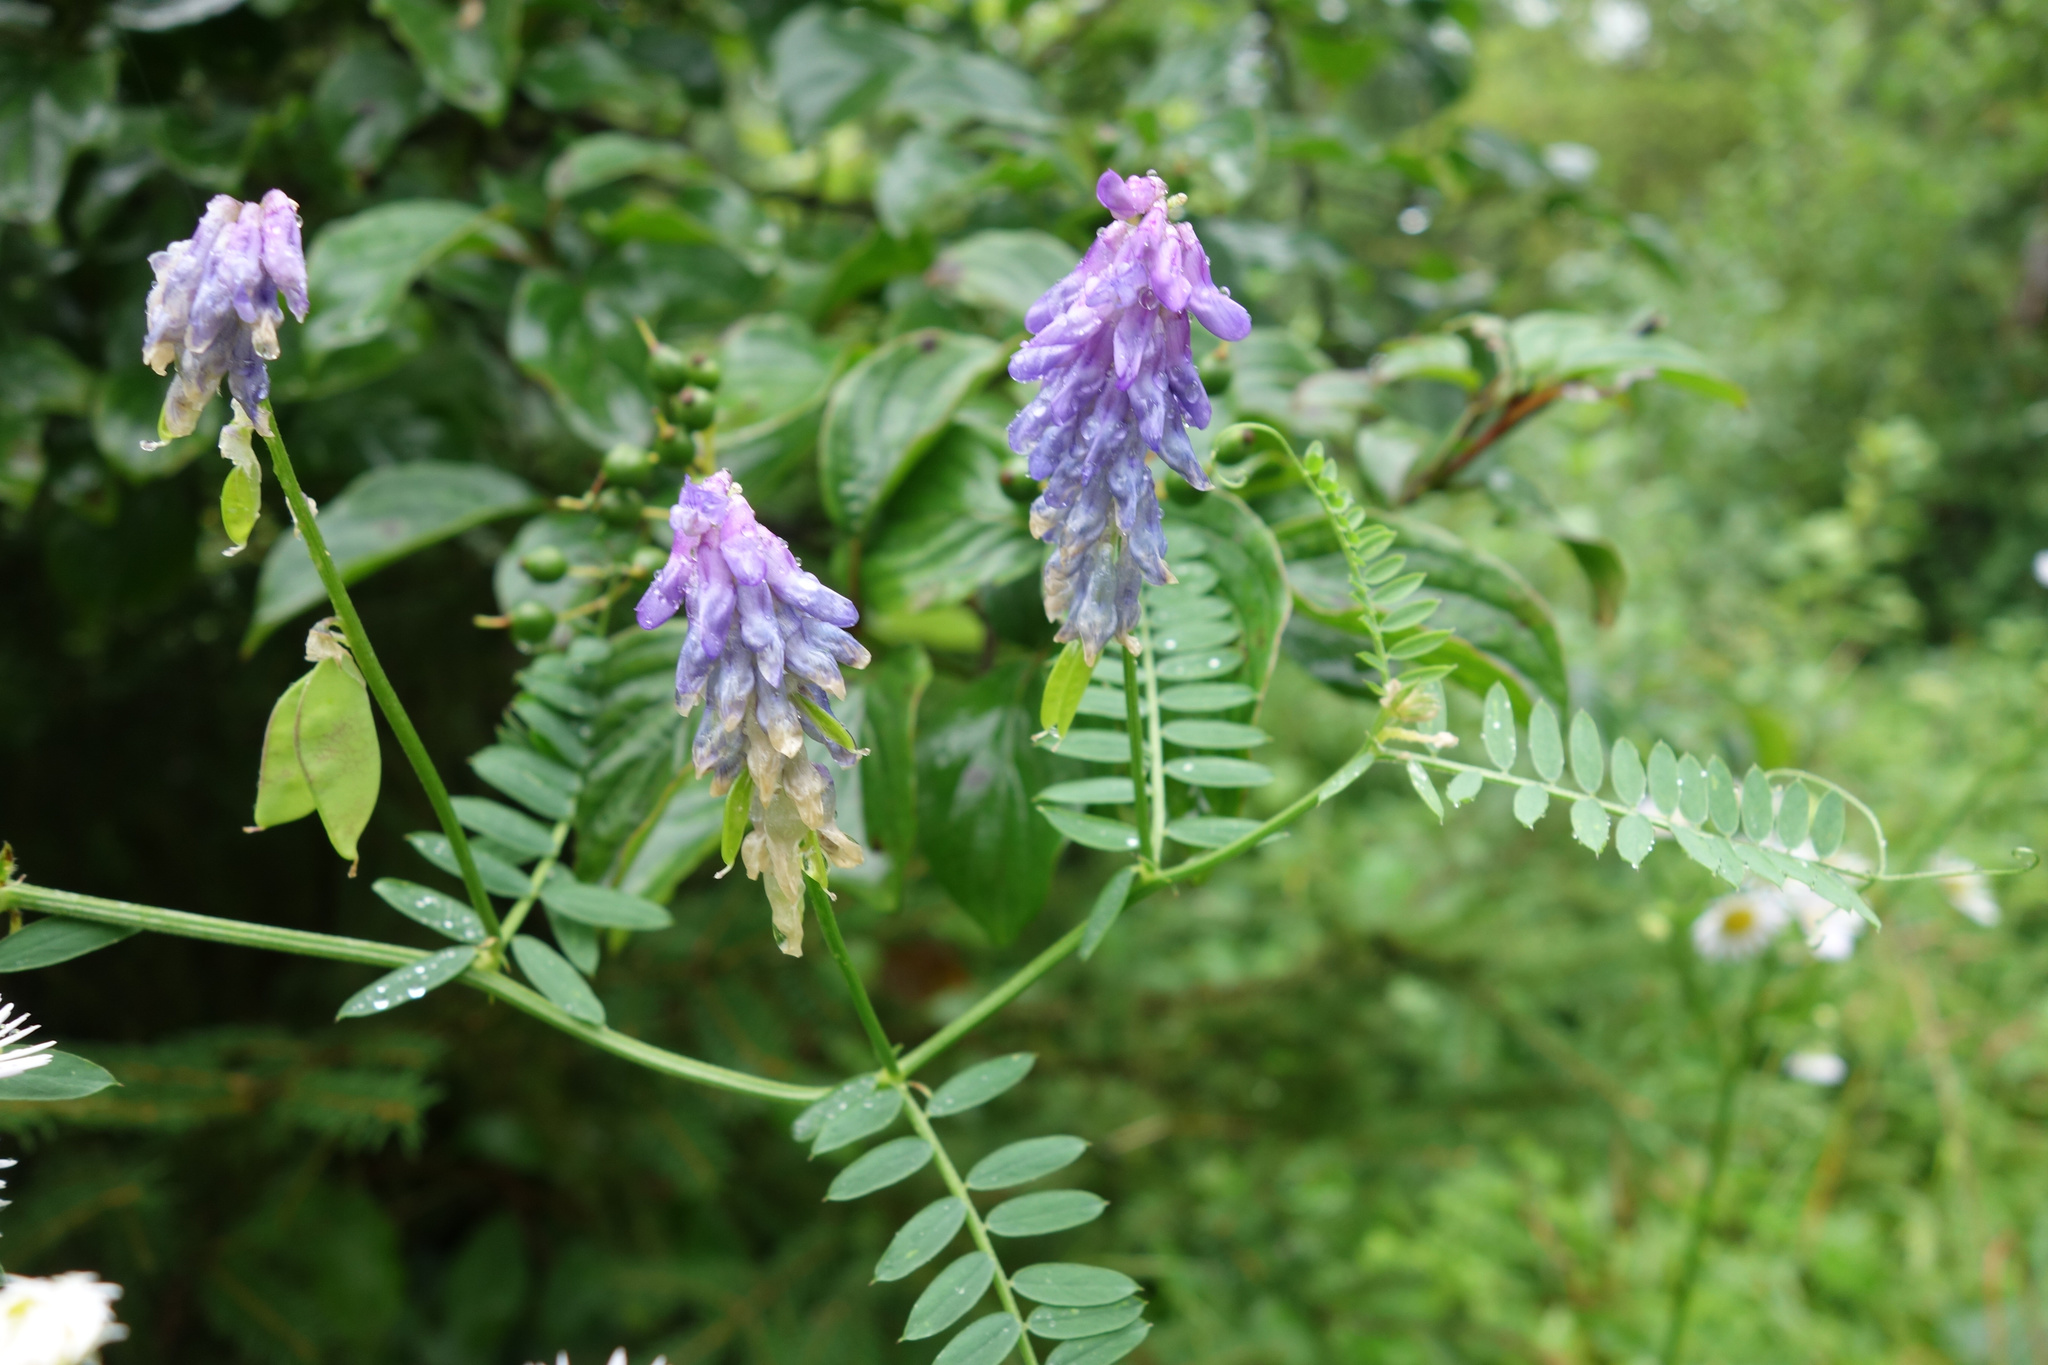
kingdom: Plantae
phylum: Tracheophyta
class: Magnoliopsida
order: Fabales
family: Fabaceae
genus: Vicia
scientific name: Vicia cracca
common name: Bird vetch
